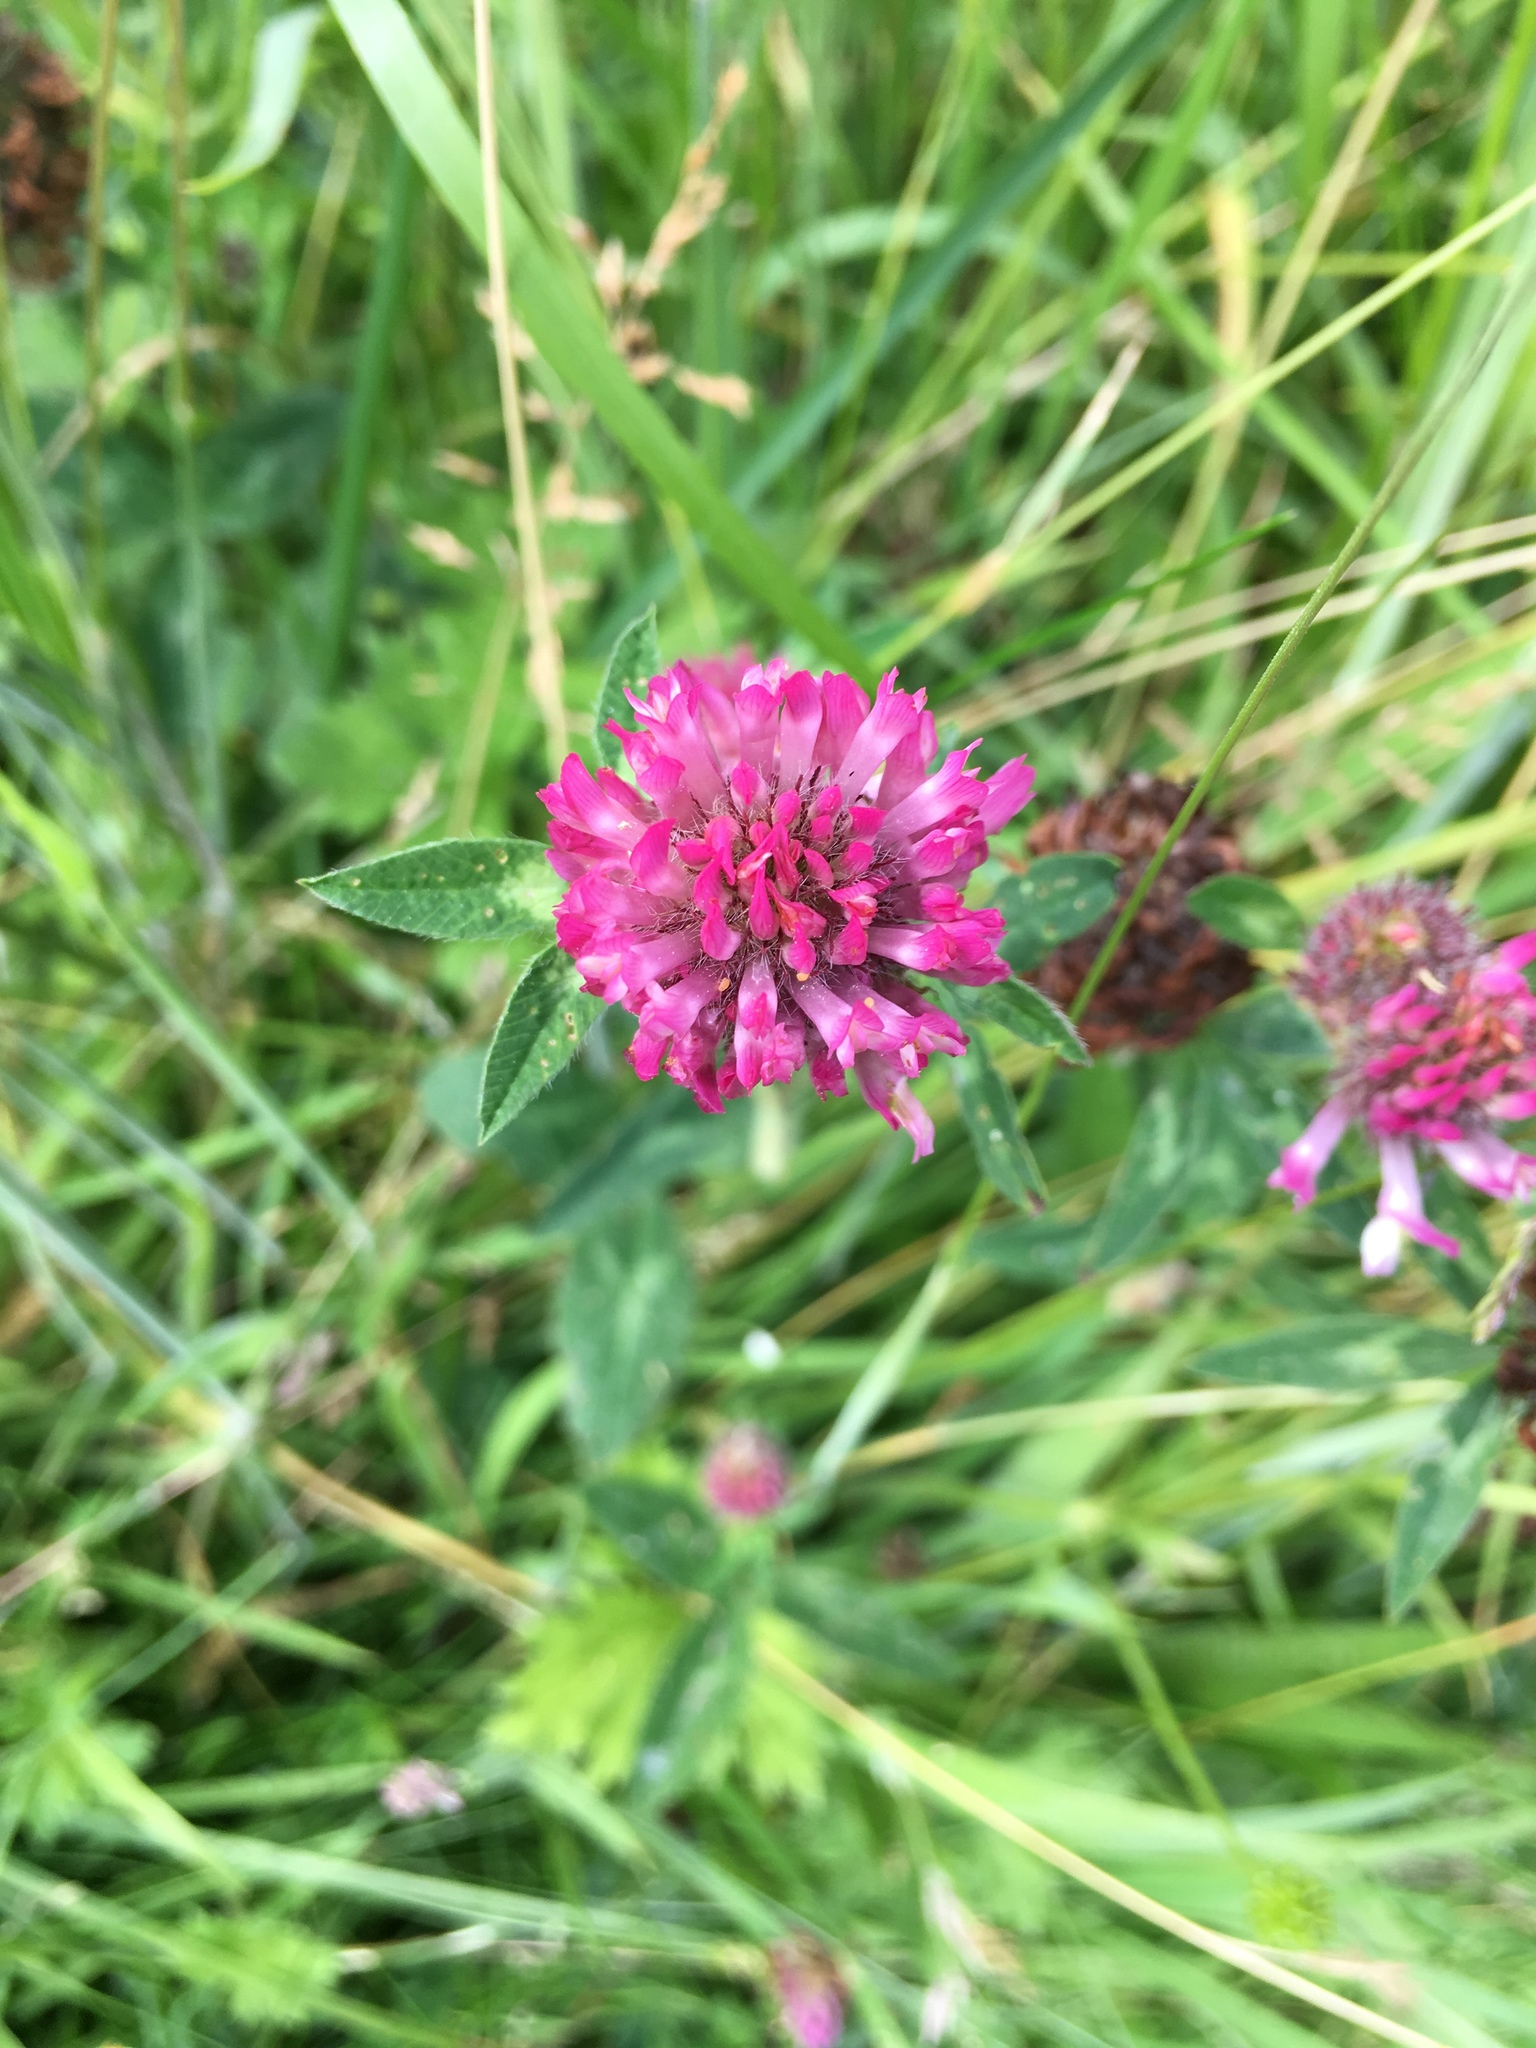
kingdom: Plantae
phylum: Tracheophyta
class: Magnoliopsida
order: Fabales
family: Fabaceae
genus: Trifolium
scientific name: Trifolium pratense
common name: Red clover
